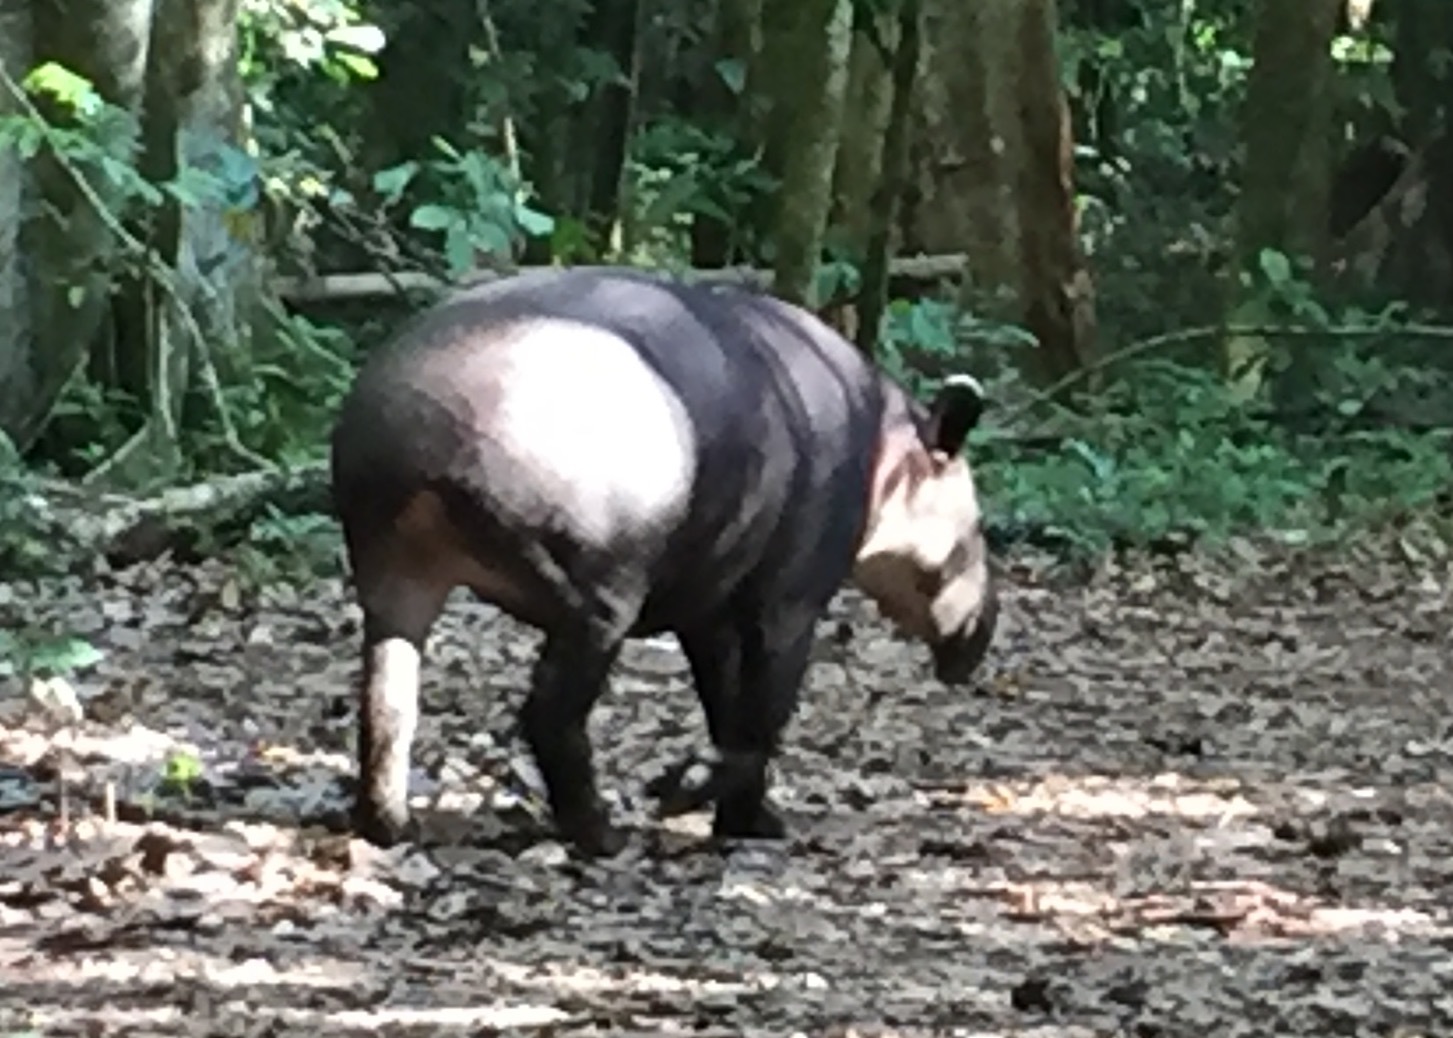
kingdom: Animalia
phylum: Chordata
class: Mammalia
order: Perissodactyla
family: Tapiridae
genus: Tapirella
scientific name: Tapirella bairdii
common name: Baird's tapir
